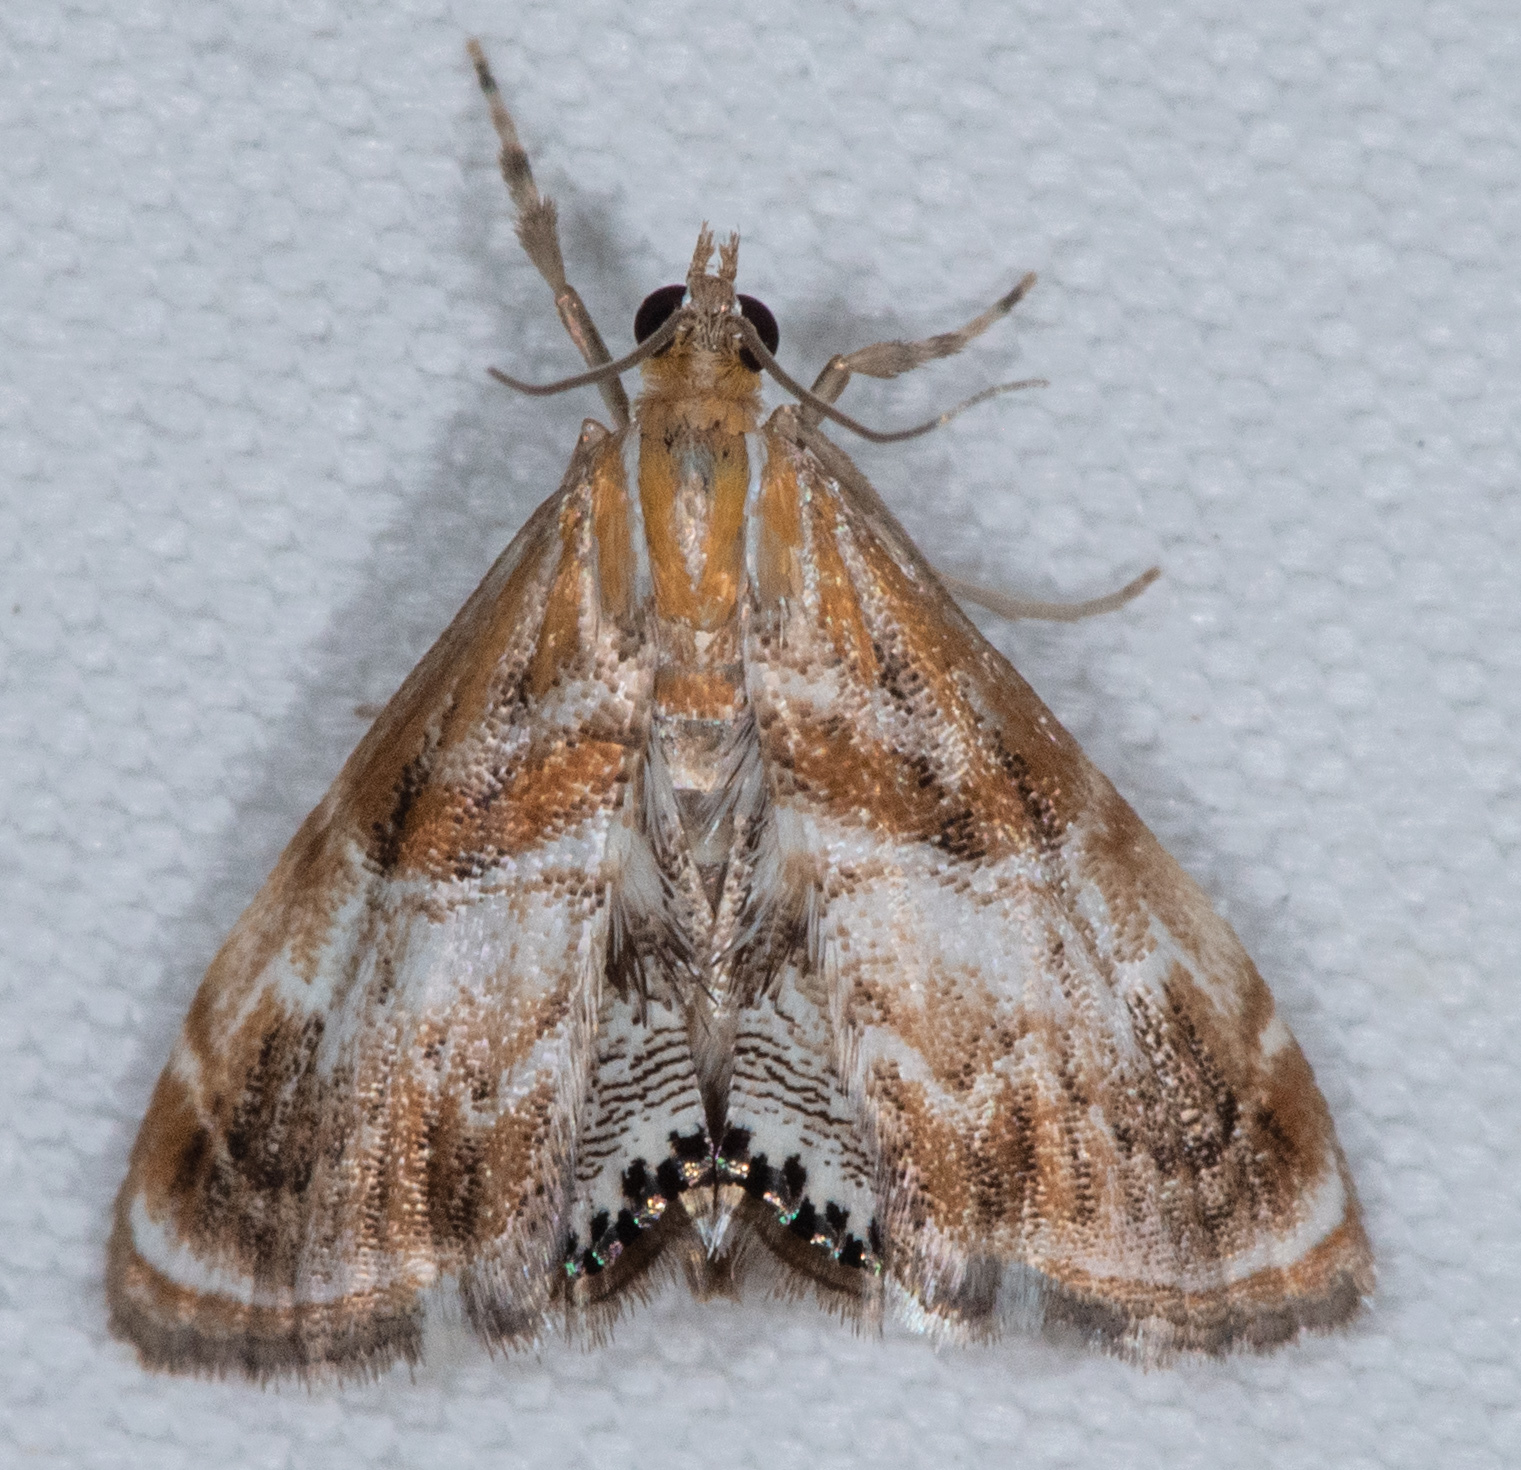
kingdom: Animalia
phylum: Arthropoda
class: Insecta
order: Lepidoptera
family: Crambidae
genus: Dicymolomia
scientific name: Dicymolomia metalliferalis
